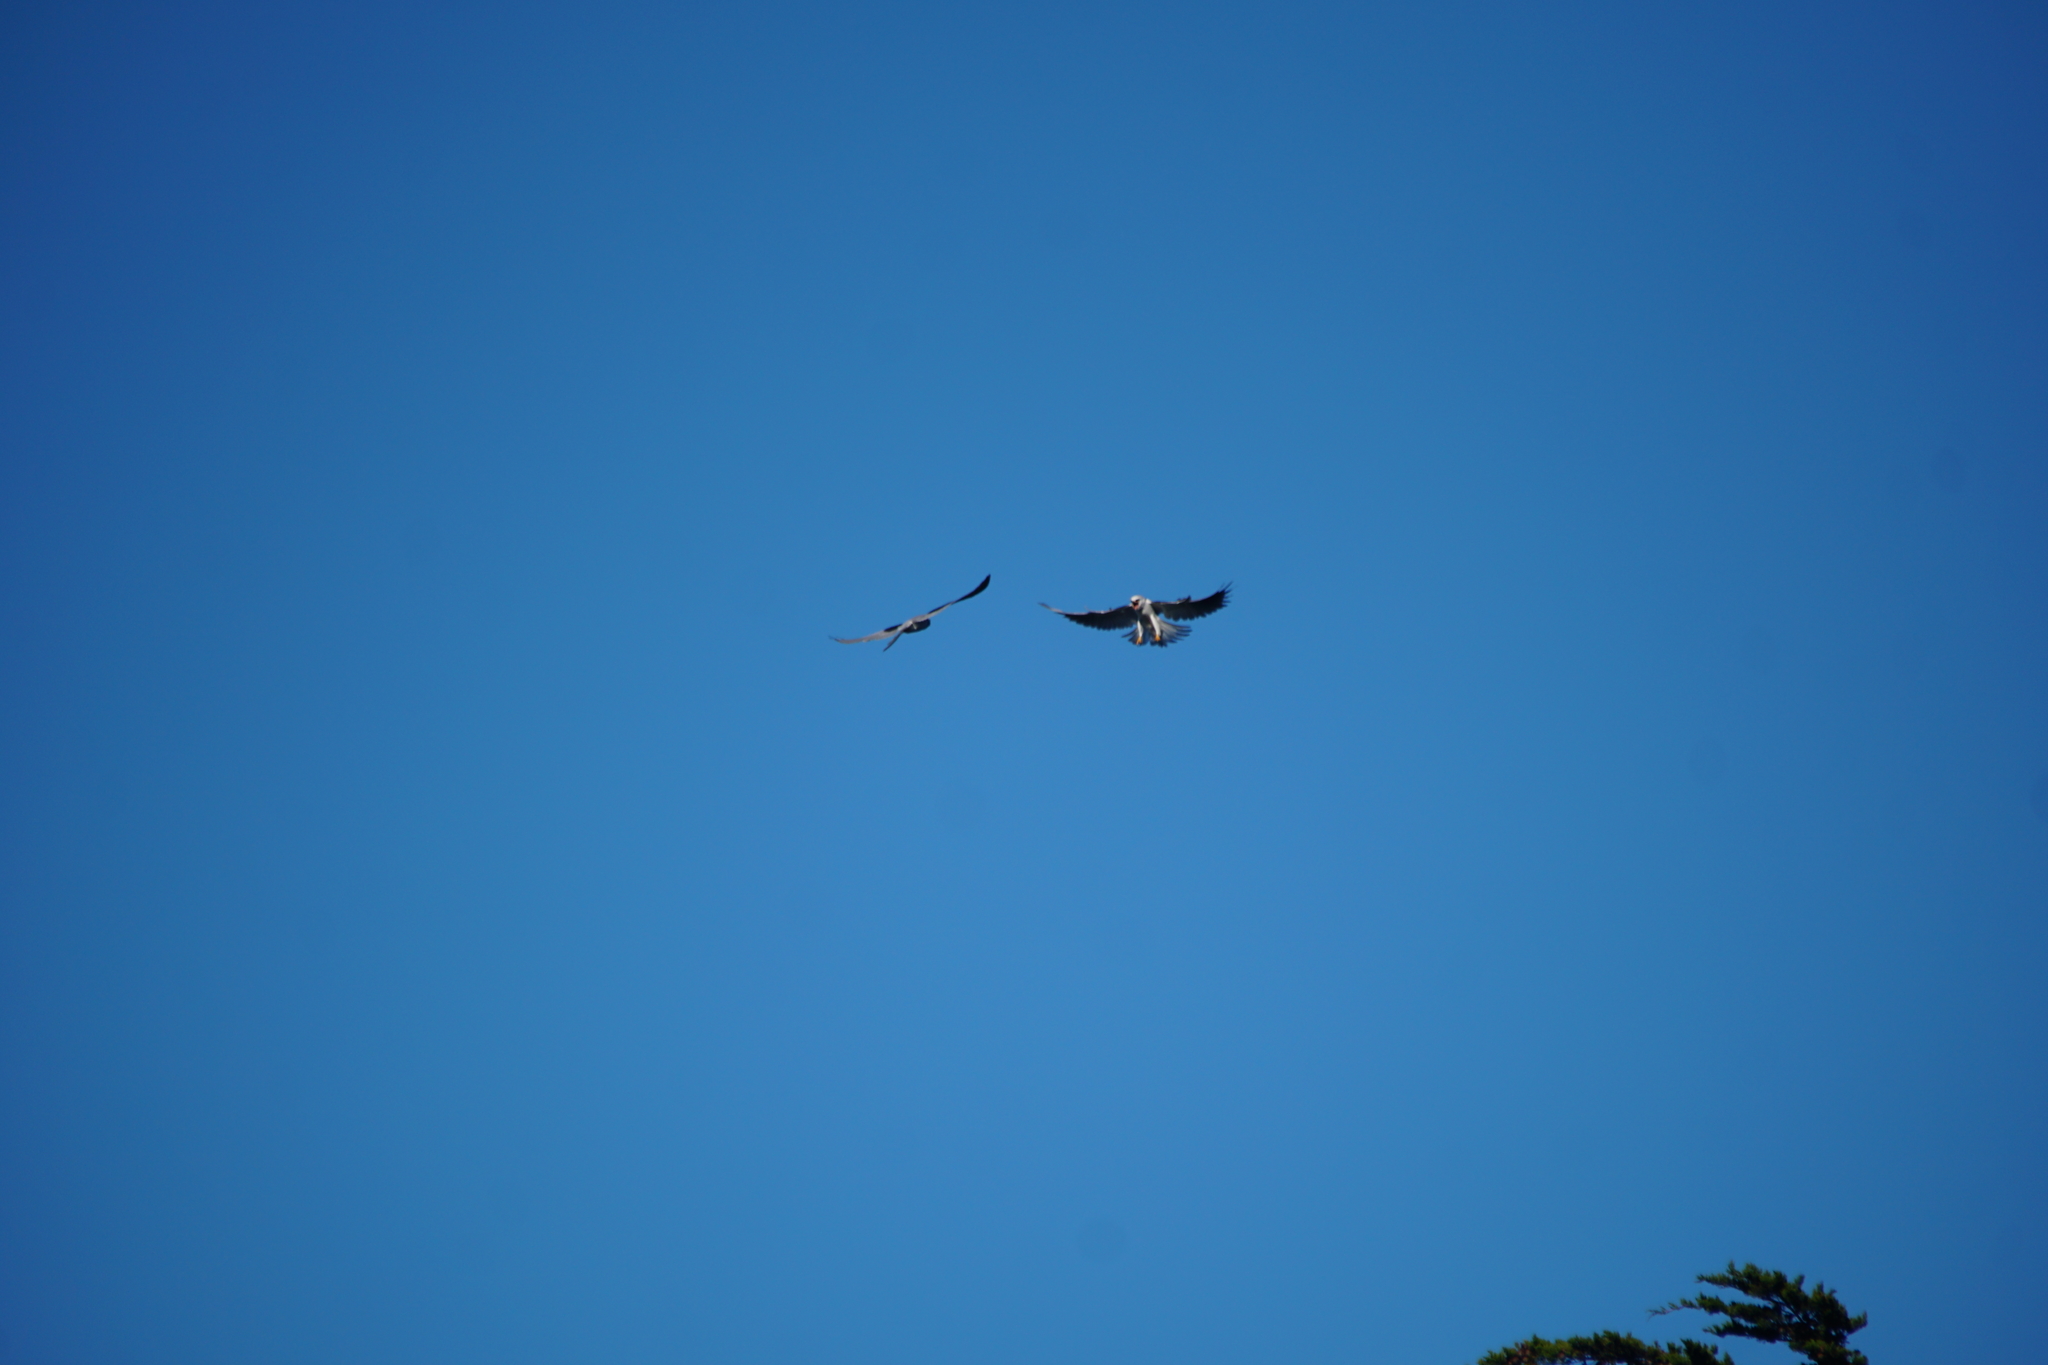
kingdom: Animalia
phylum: Chordata
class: Aves
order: Accipitriformes
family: Accipitridae
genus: Elanus
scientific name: Elanus leucurus
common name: White-tailed kite
